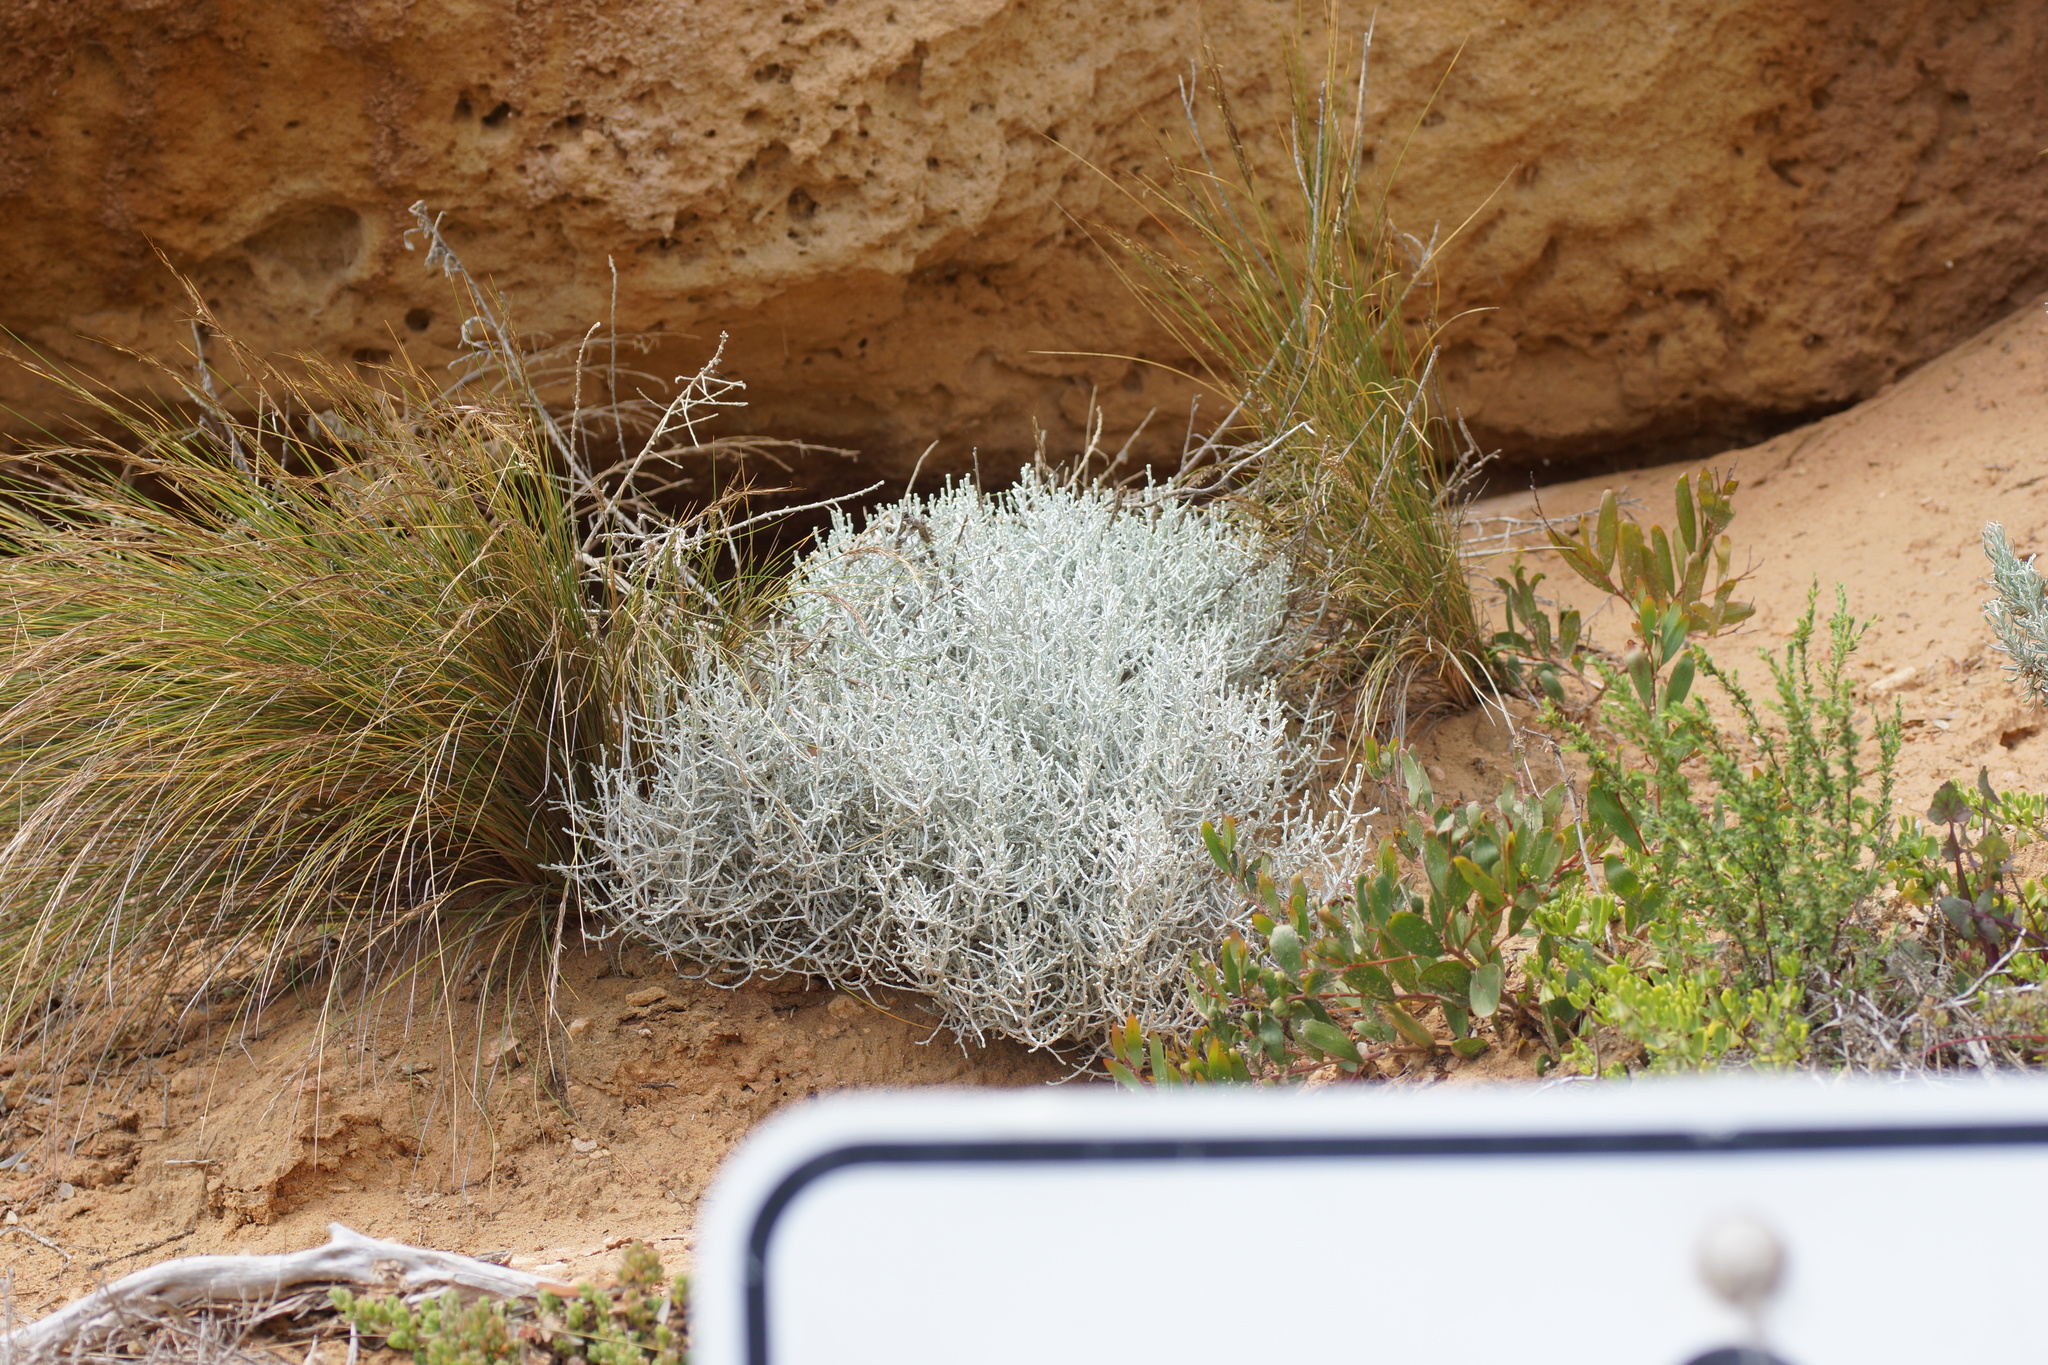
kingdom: Plantae
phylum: Tracheophyta
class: Magnoliopsida
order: Asterales
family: Asteraceae
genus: Calocephalus
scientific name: Calocephalus brownii
